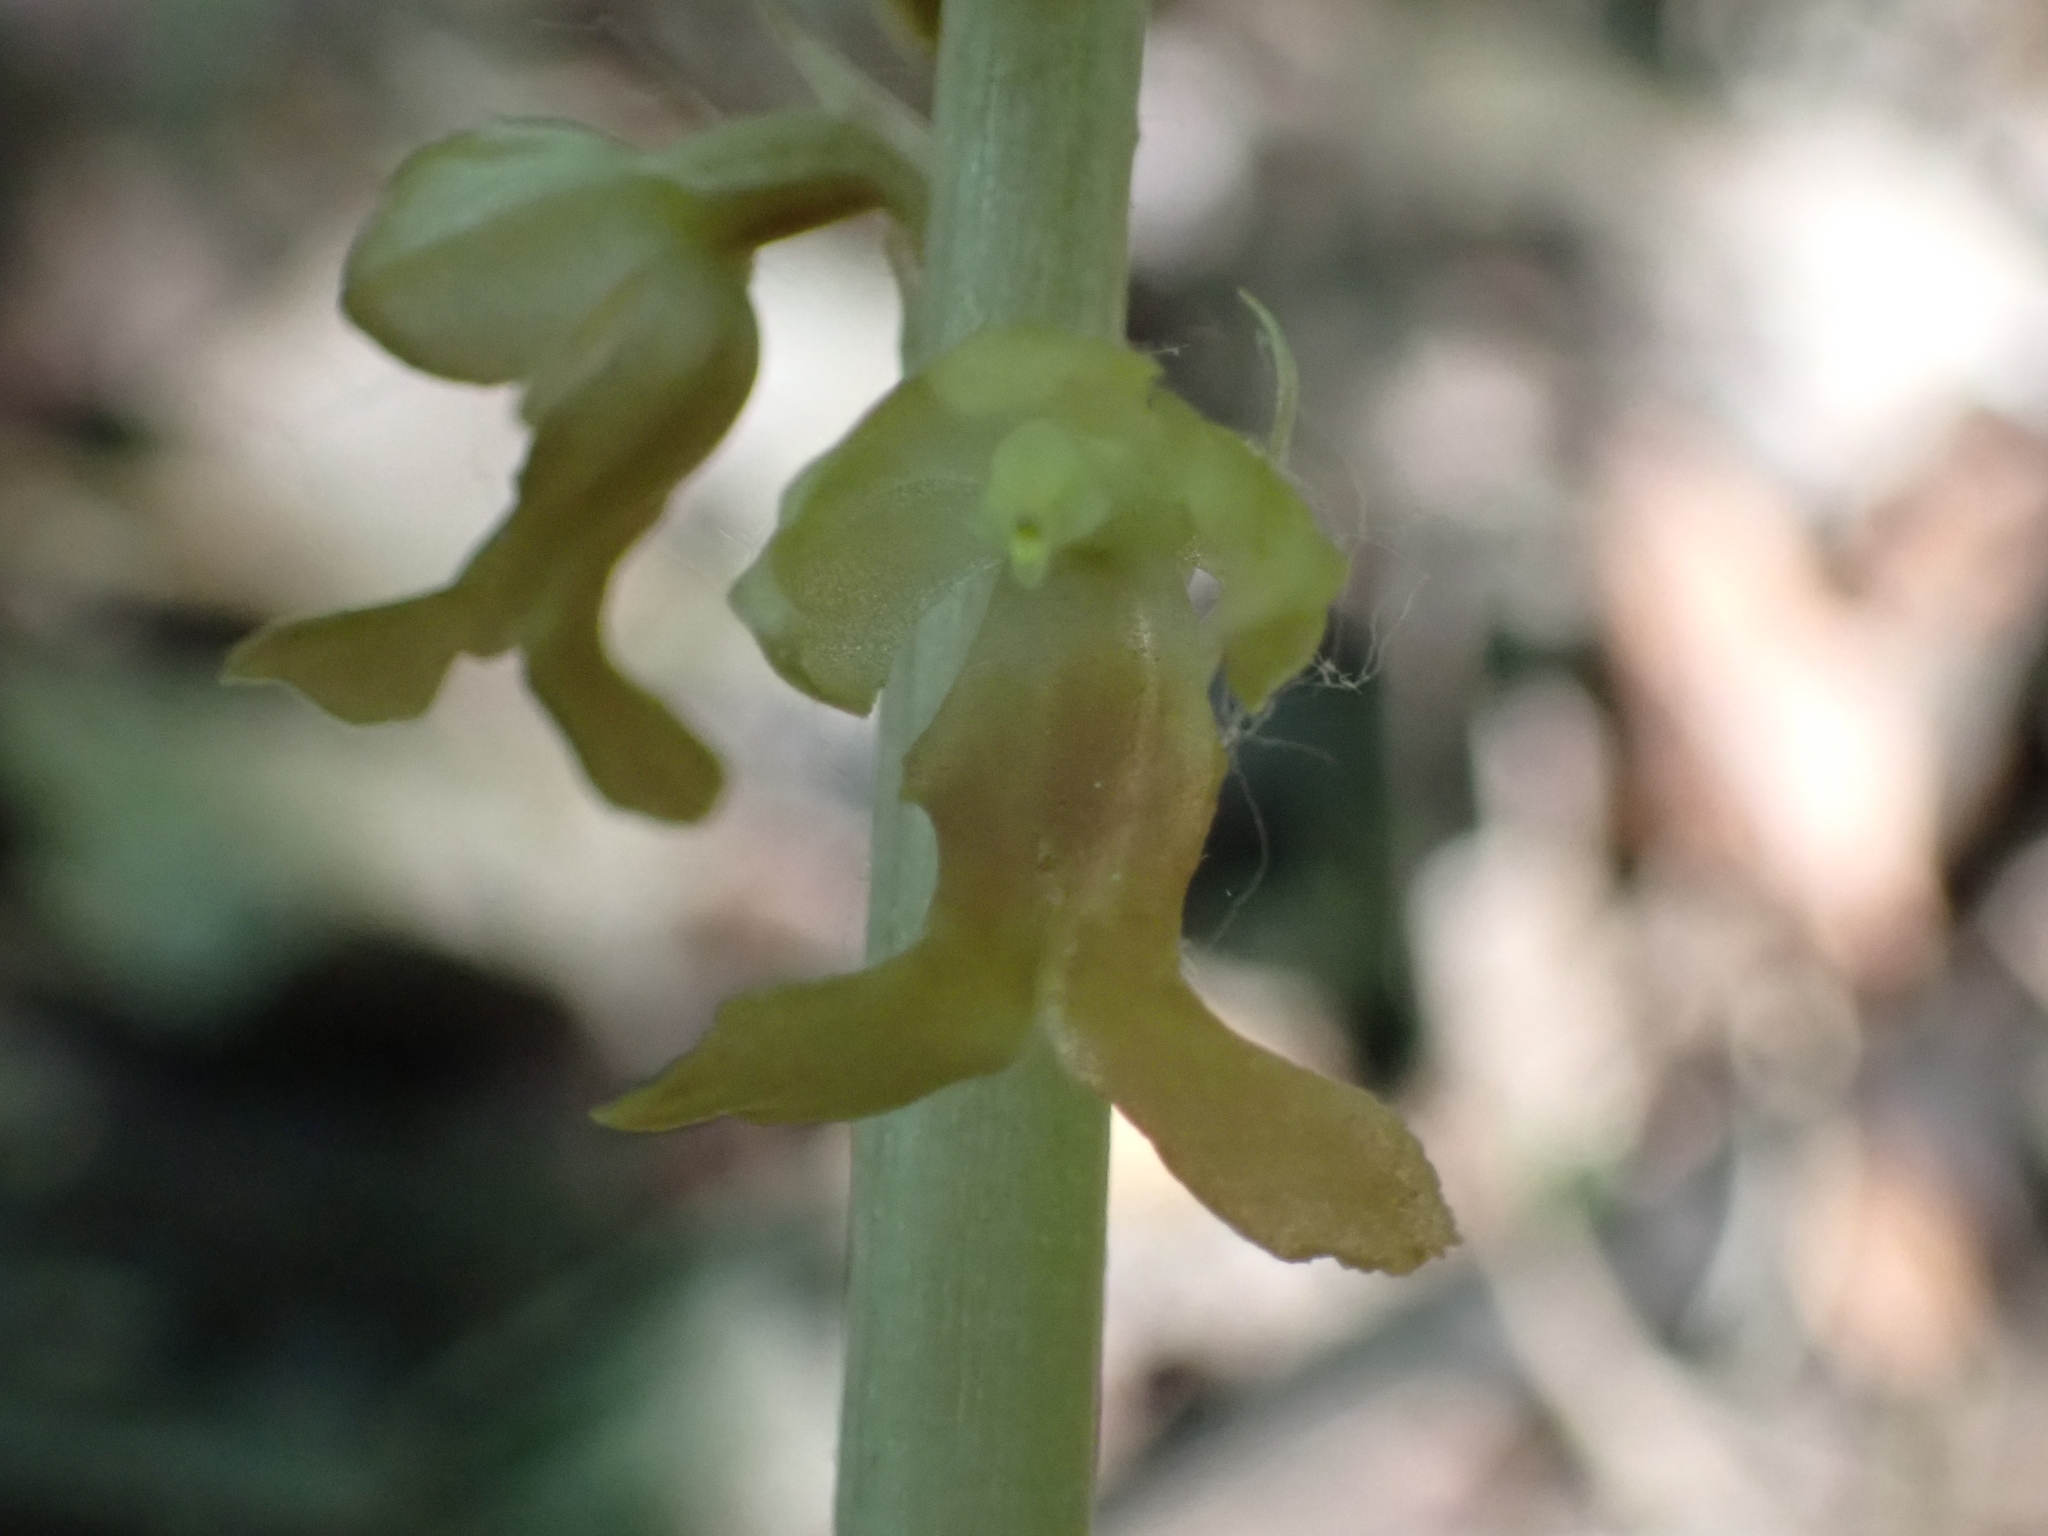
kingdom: Plantae
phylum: Tracheophyta
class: Liliopsida
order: Asparagales
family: Orchidaceae
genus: Neottia
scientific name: Neottia nidus-avis
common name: Bird's-nest orchid
